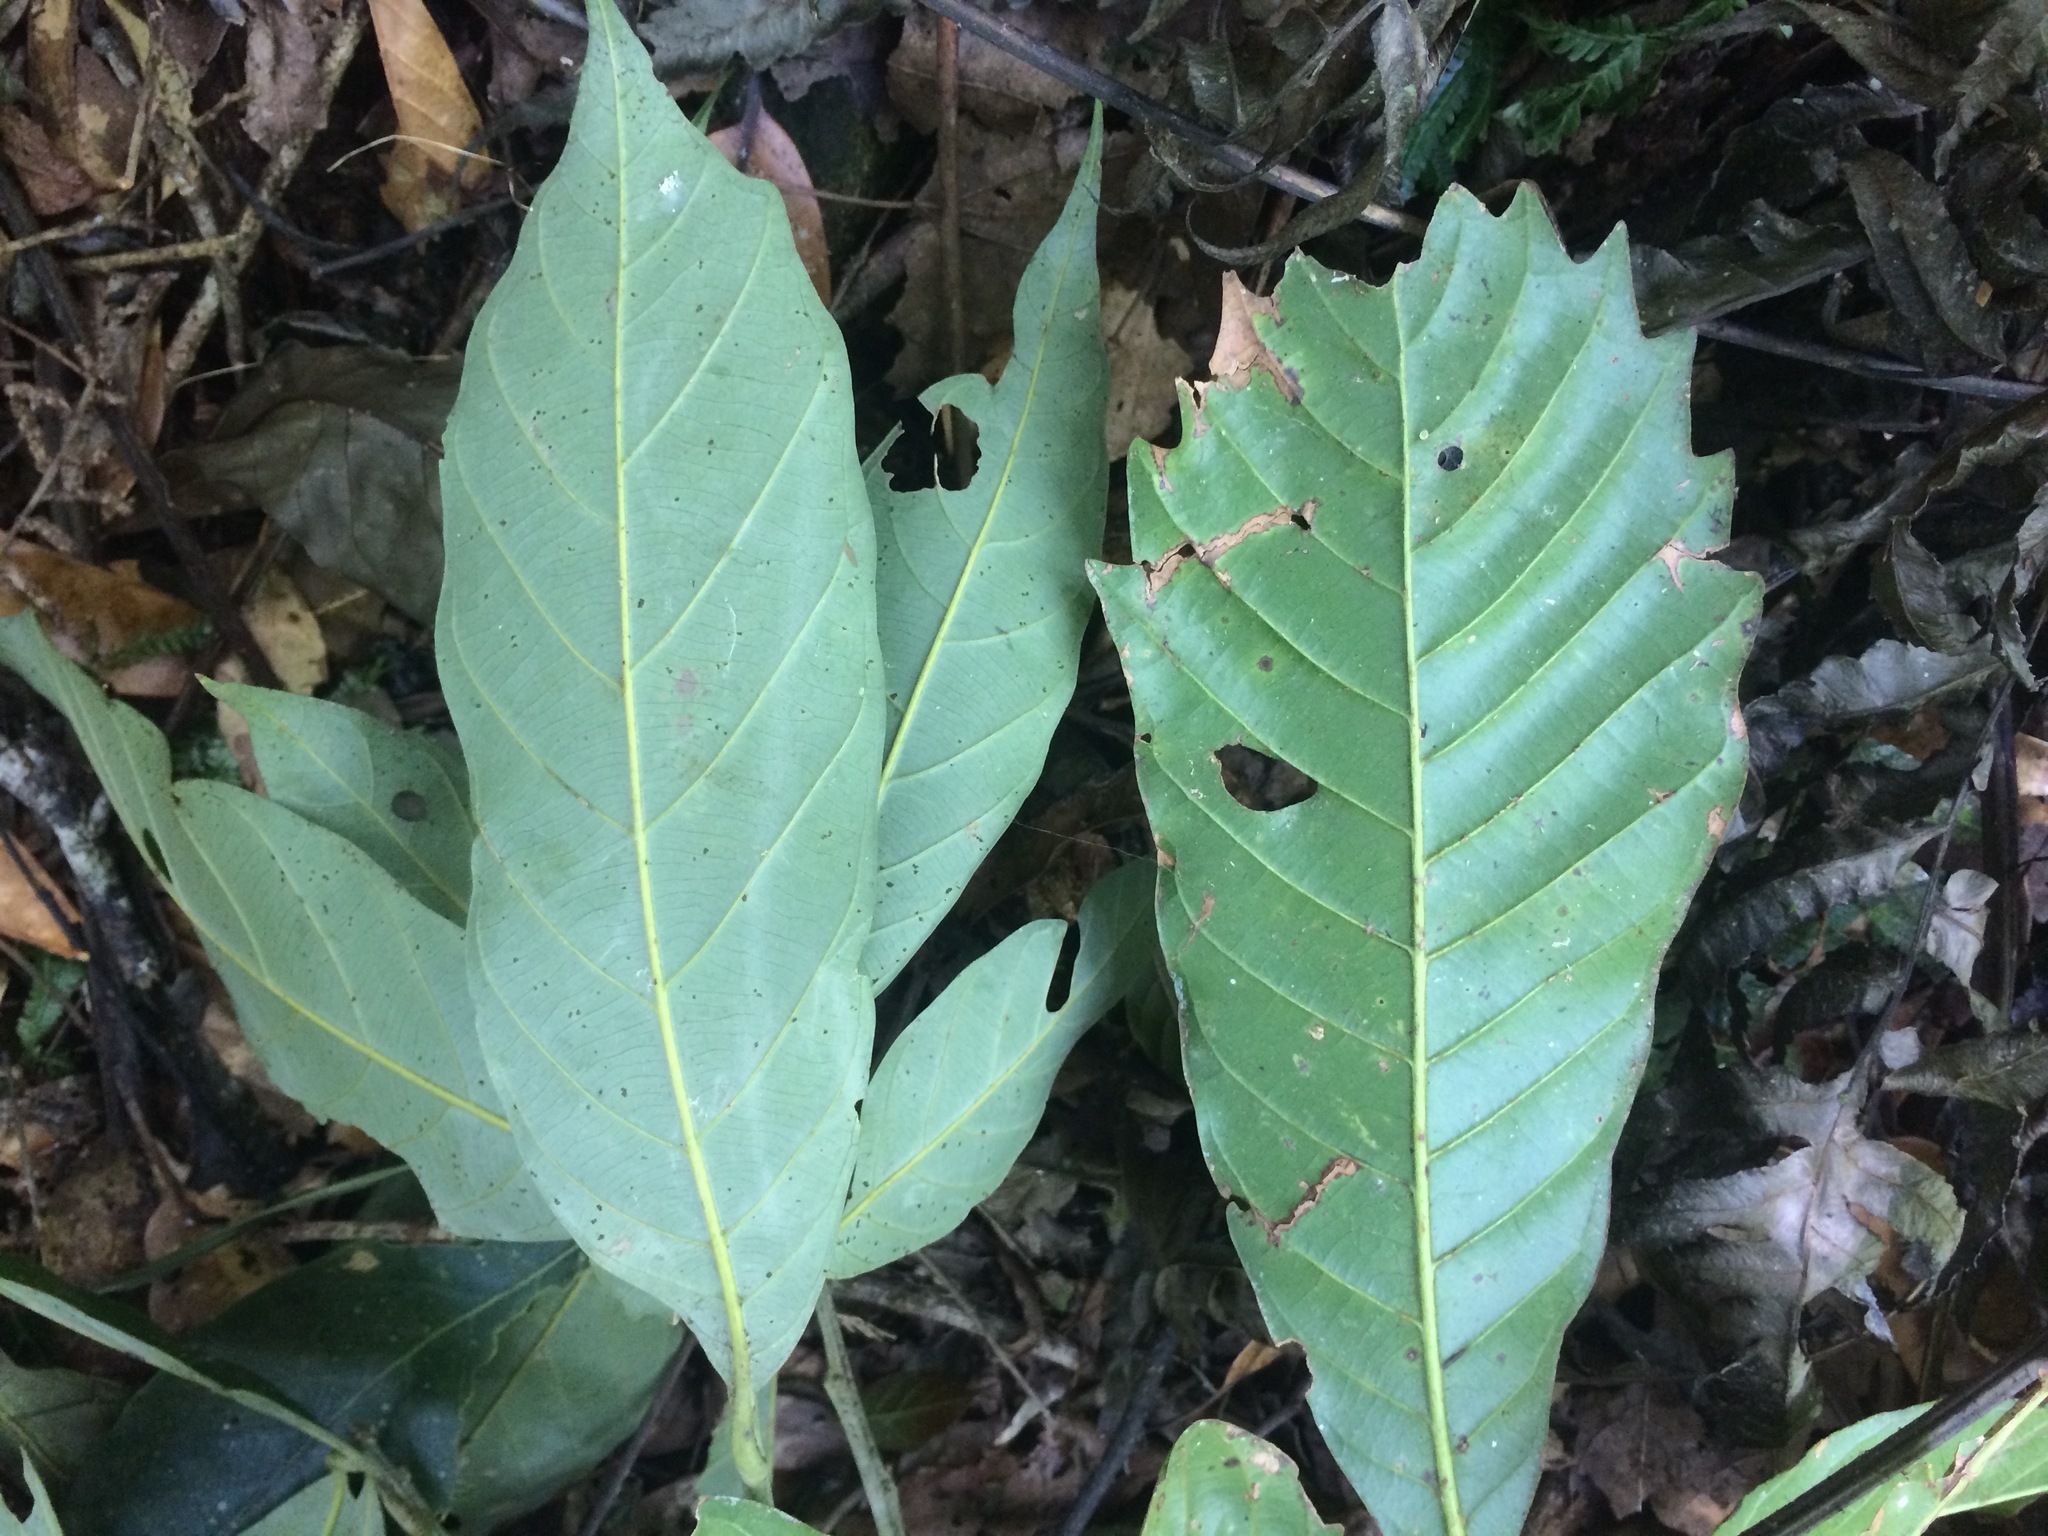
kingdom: Plantae
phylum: Tracheophyta
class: Magnoliopsida
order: Fagales
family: Fagaceae
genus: Lithocarpus
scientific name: Lithocarpus lepidocarpus
